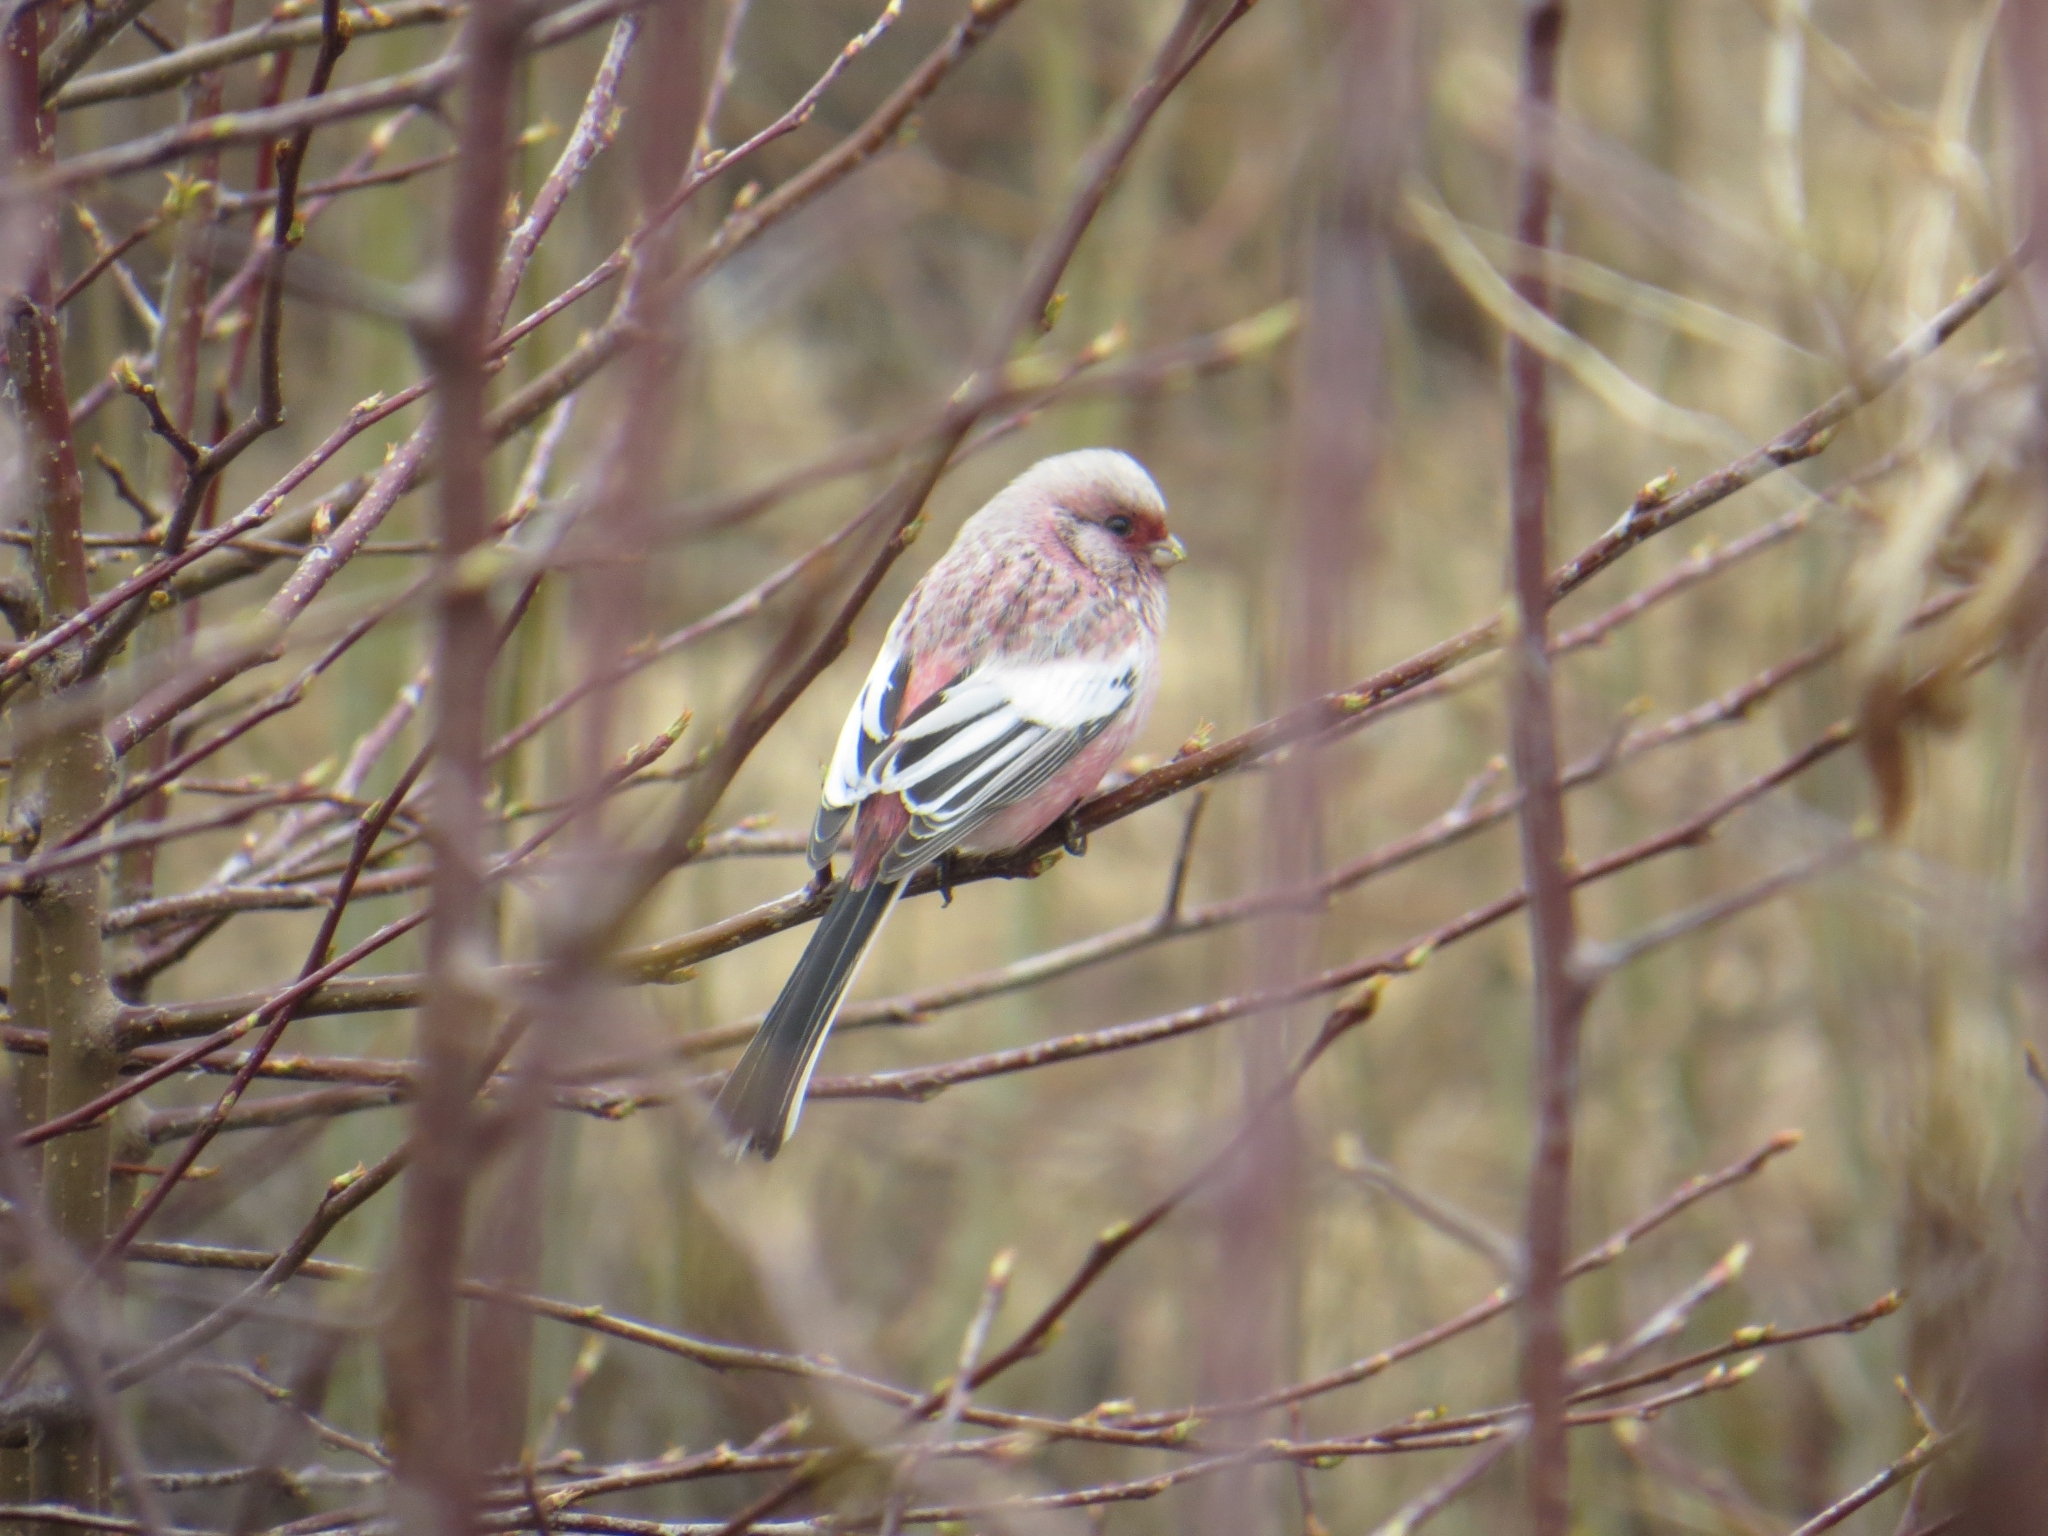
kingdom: Animalia
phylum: Chordata
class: Aves
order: Passeriformes
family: Fringillidae
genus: Carpodacus
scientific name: Carpodacus sibiricus
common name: Long-tailed rosefinch
